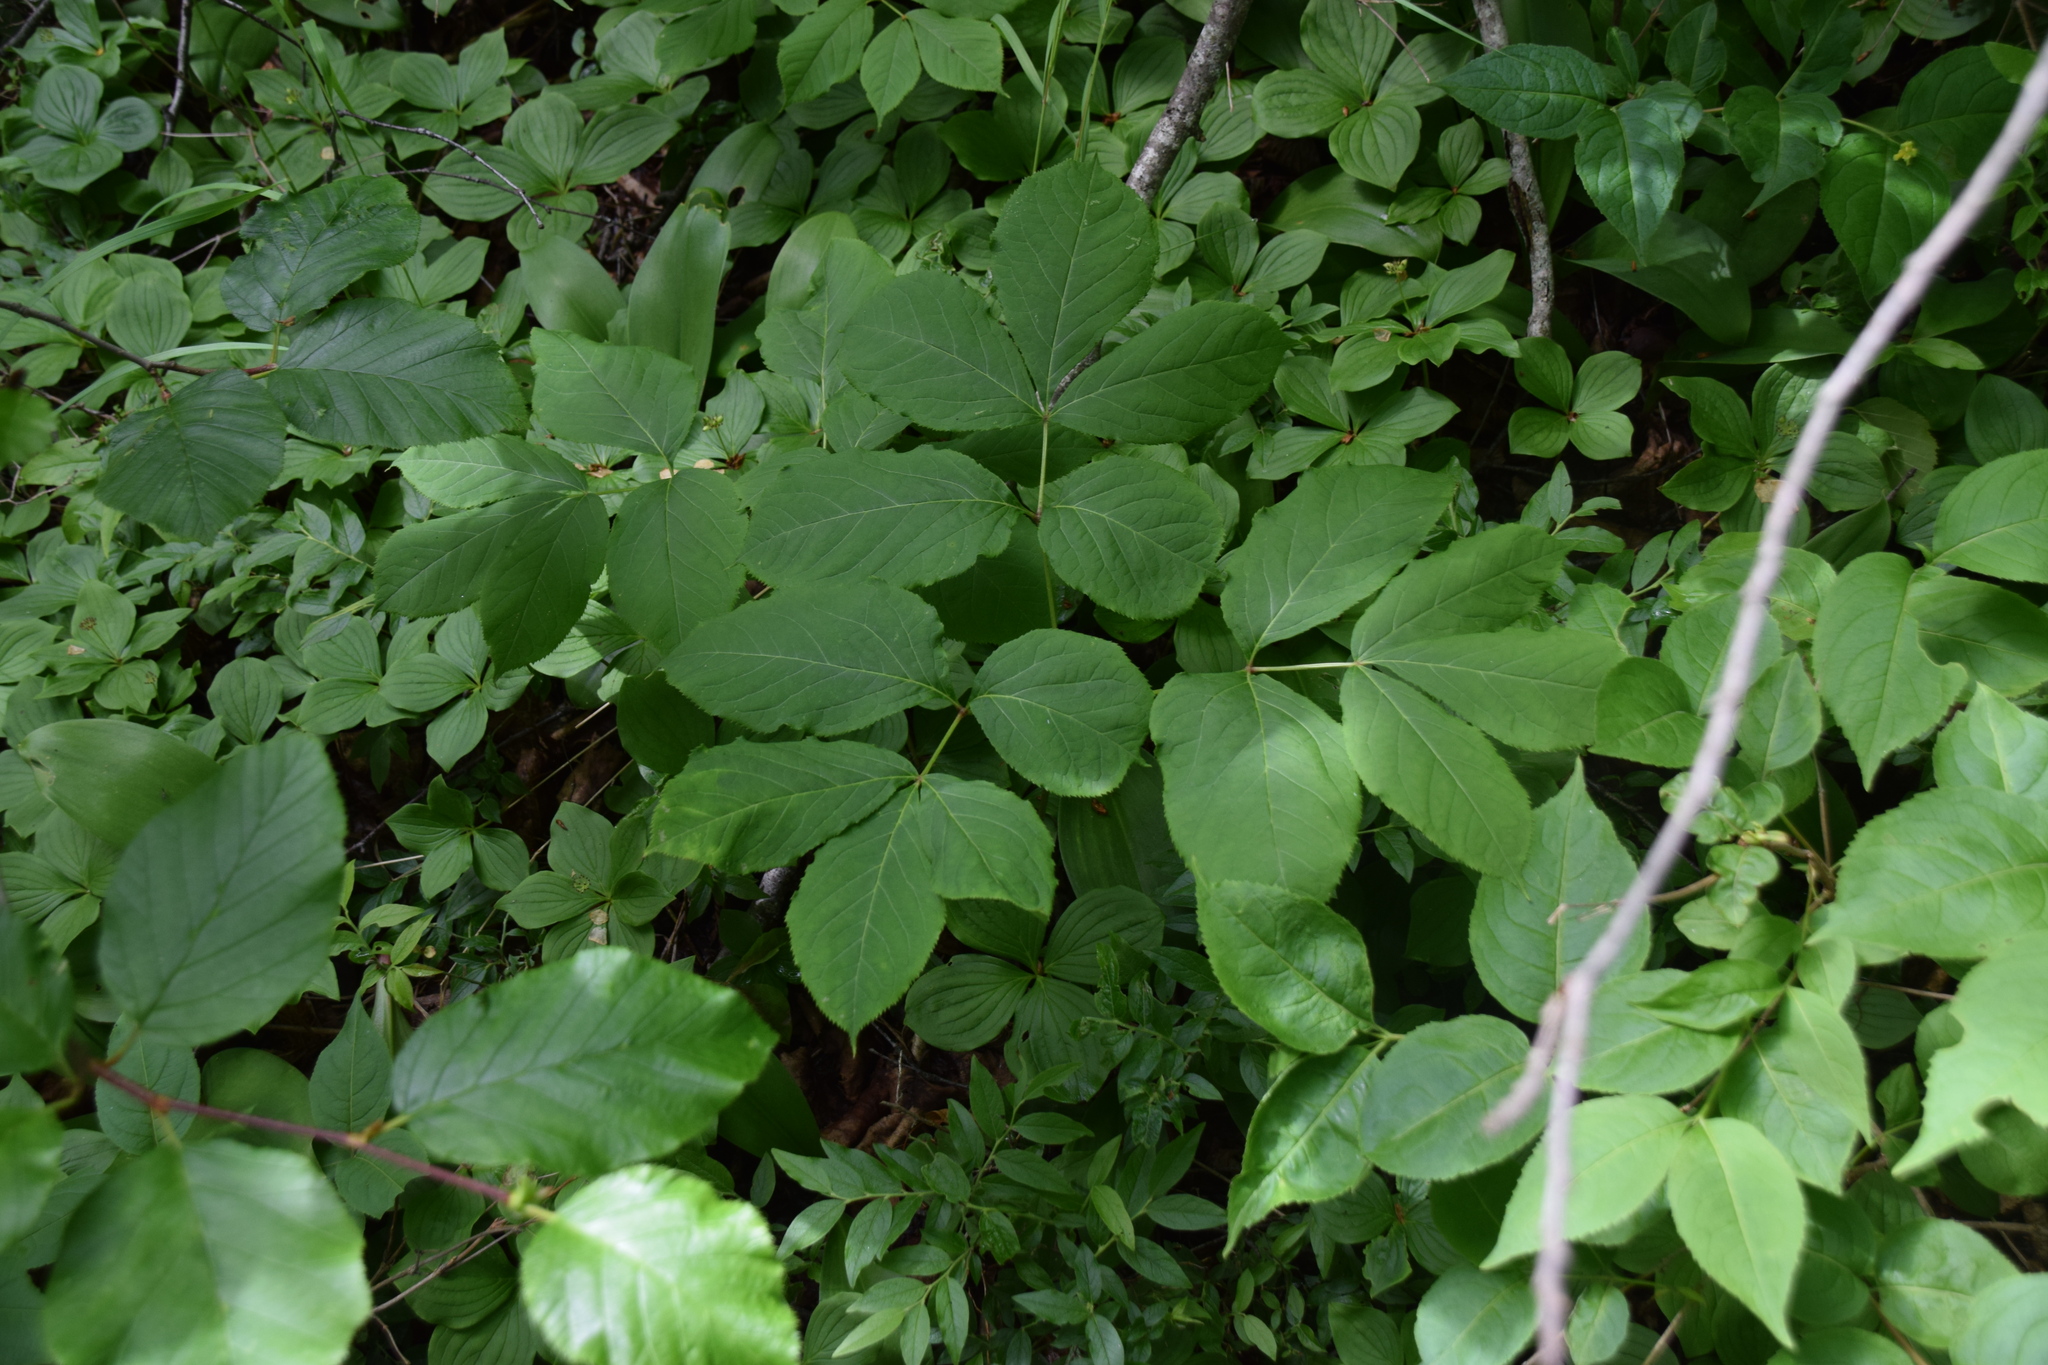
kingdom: Plantae
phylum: Tracheophyta
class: Magnoliopsida
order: Apiales
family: Araliaceae
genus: Aralia
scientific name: Aralia nudicaulis
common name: Wild sarsaparilla
